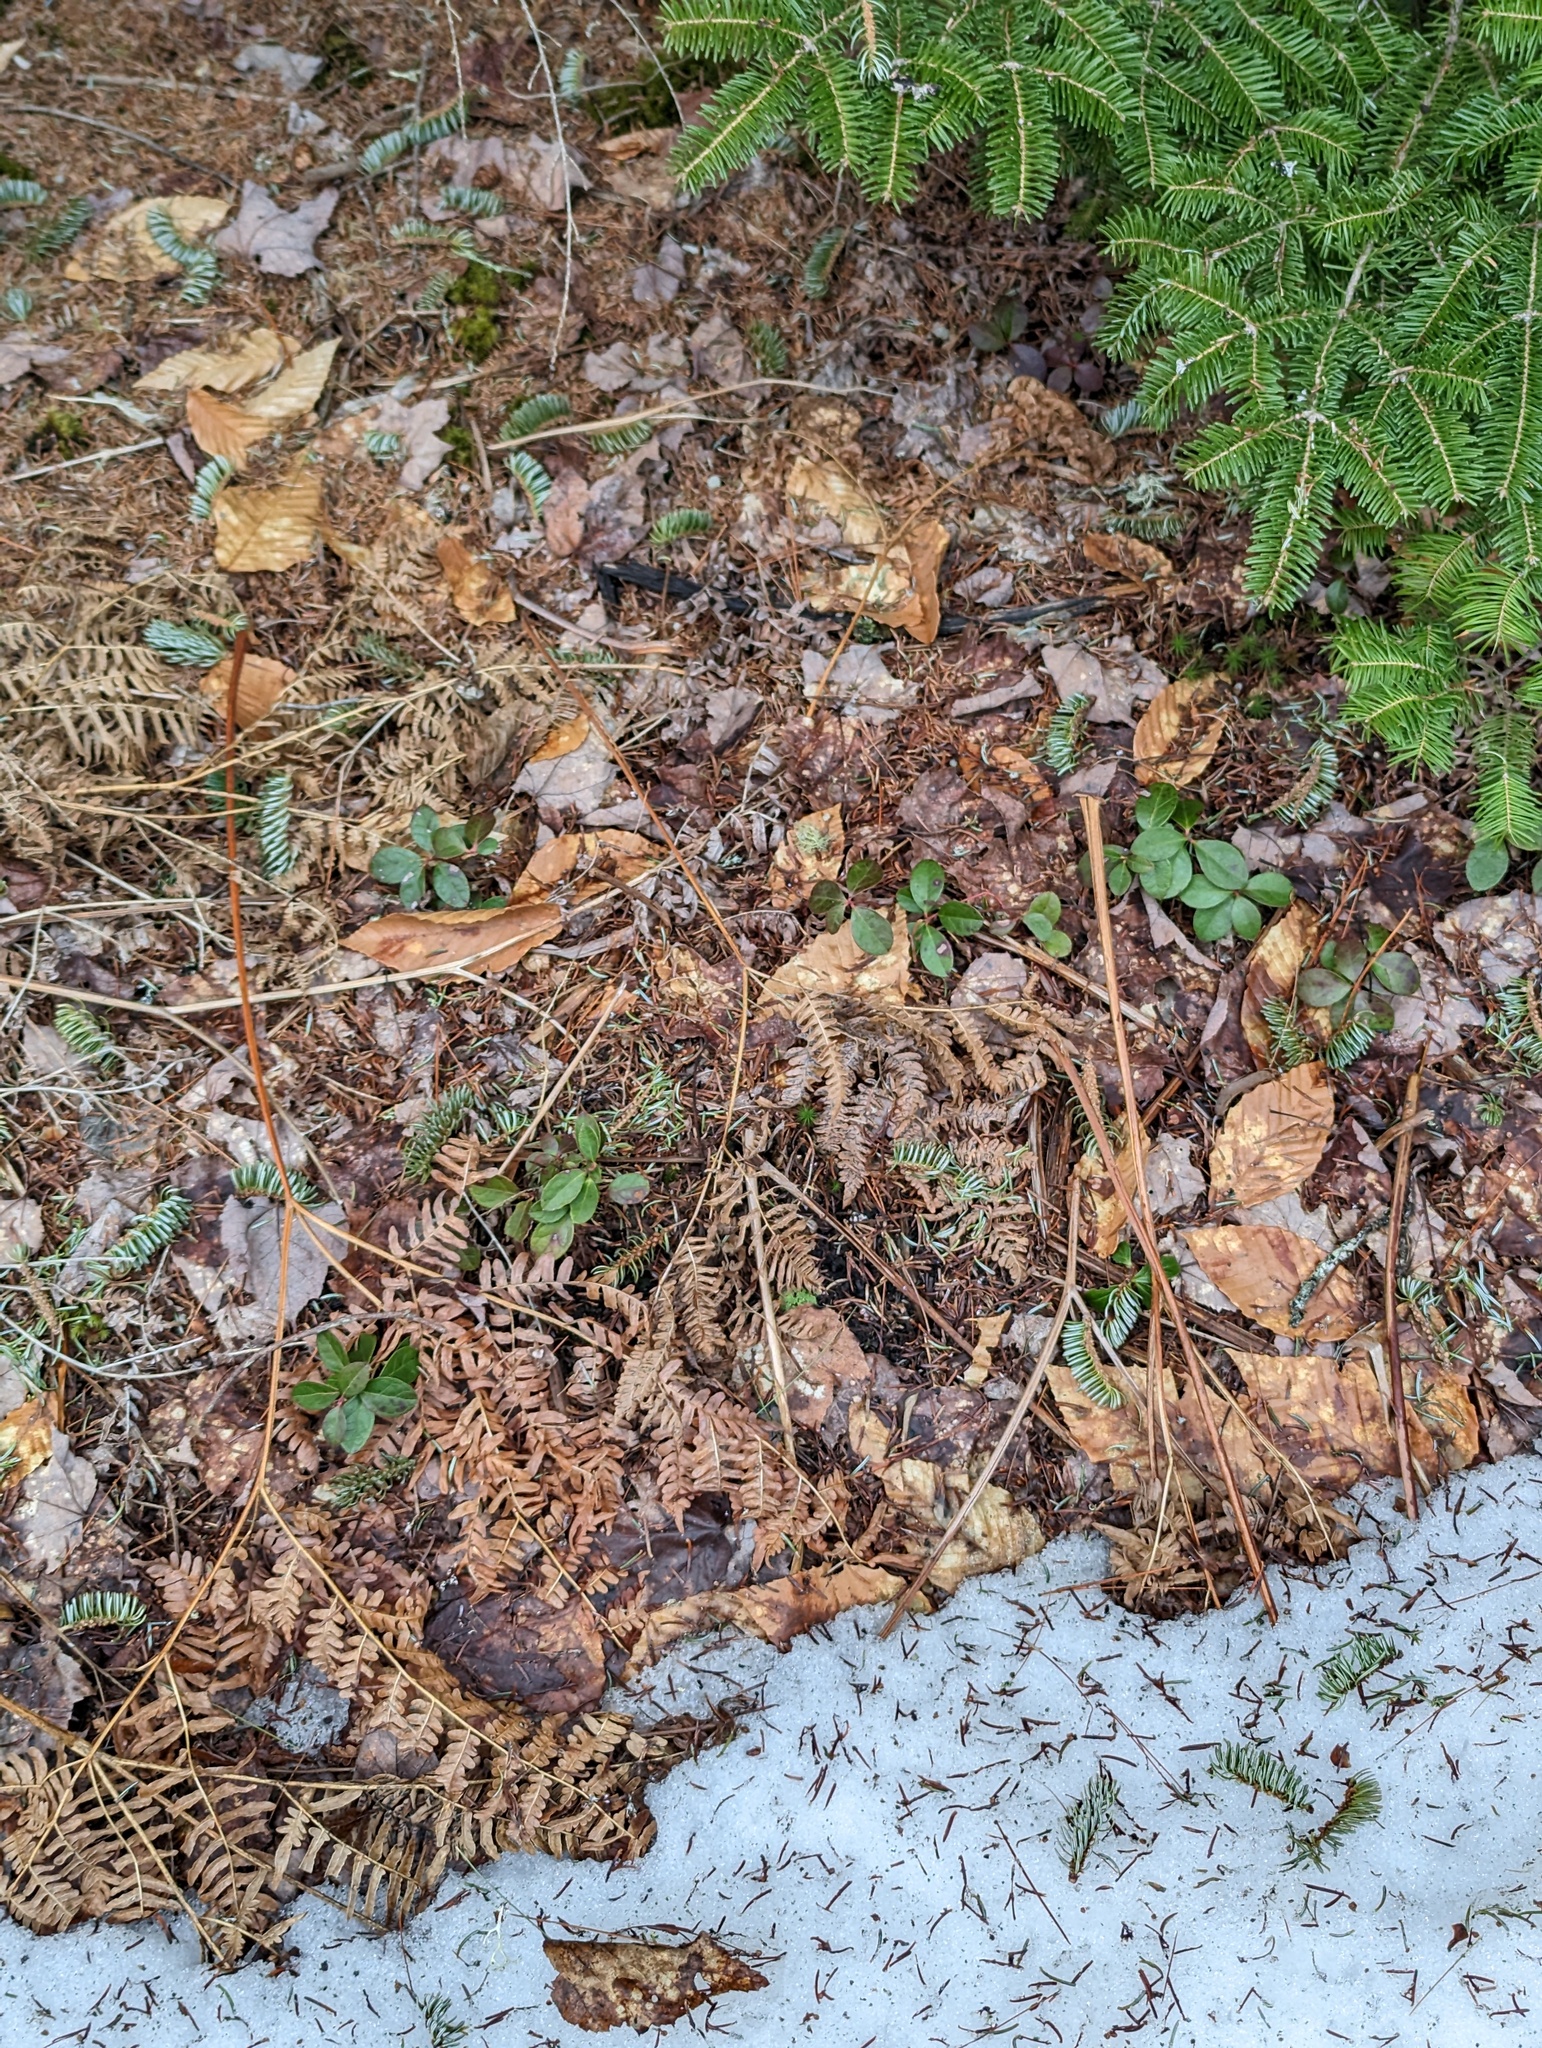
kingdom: Plantae
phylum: Tracheophyta
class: Magnoliopsida
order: Ericales
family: Ericaceae
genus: Gaultheria
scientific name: Gaultheria procumbens
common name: Checkerberry
